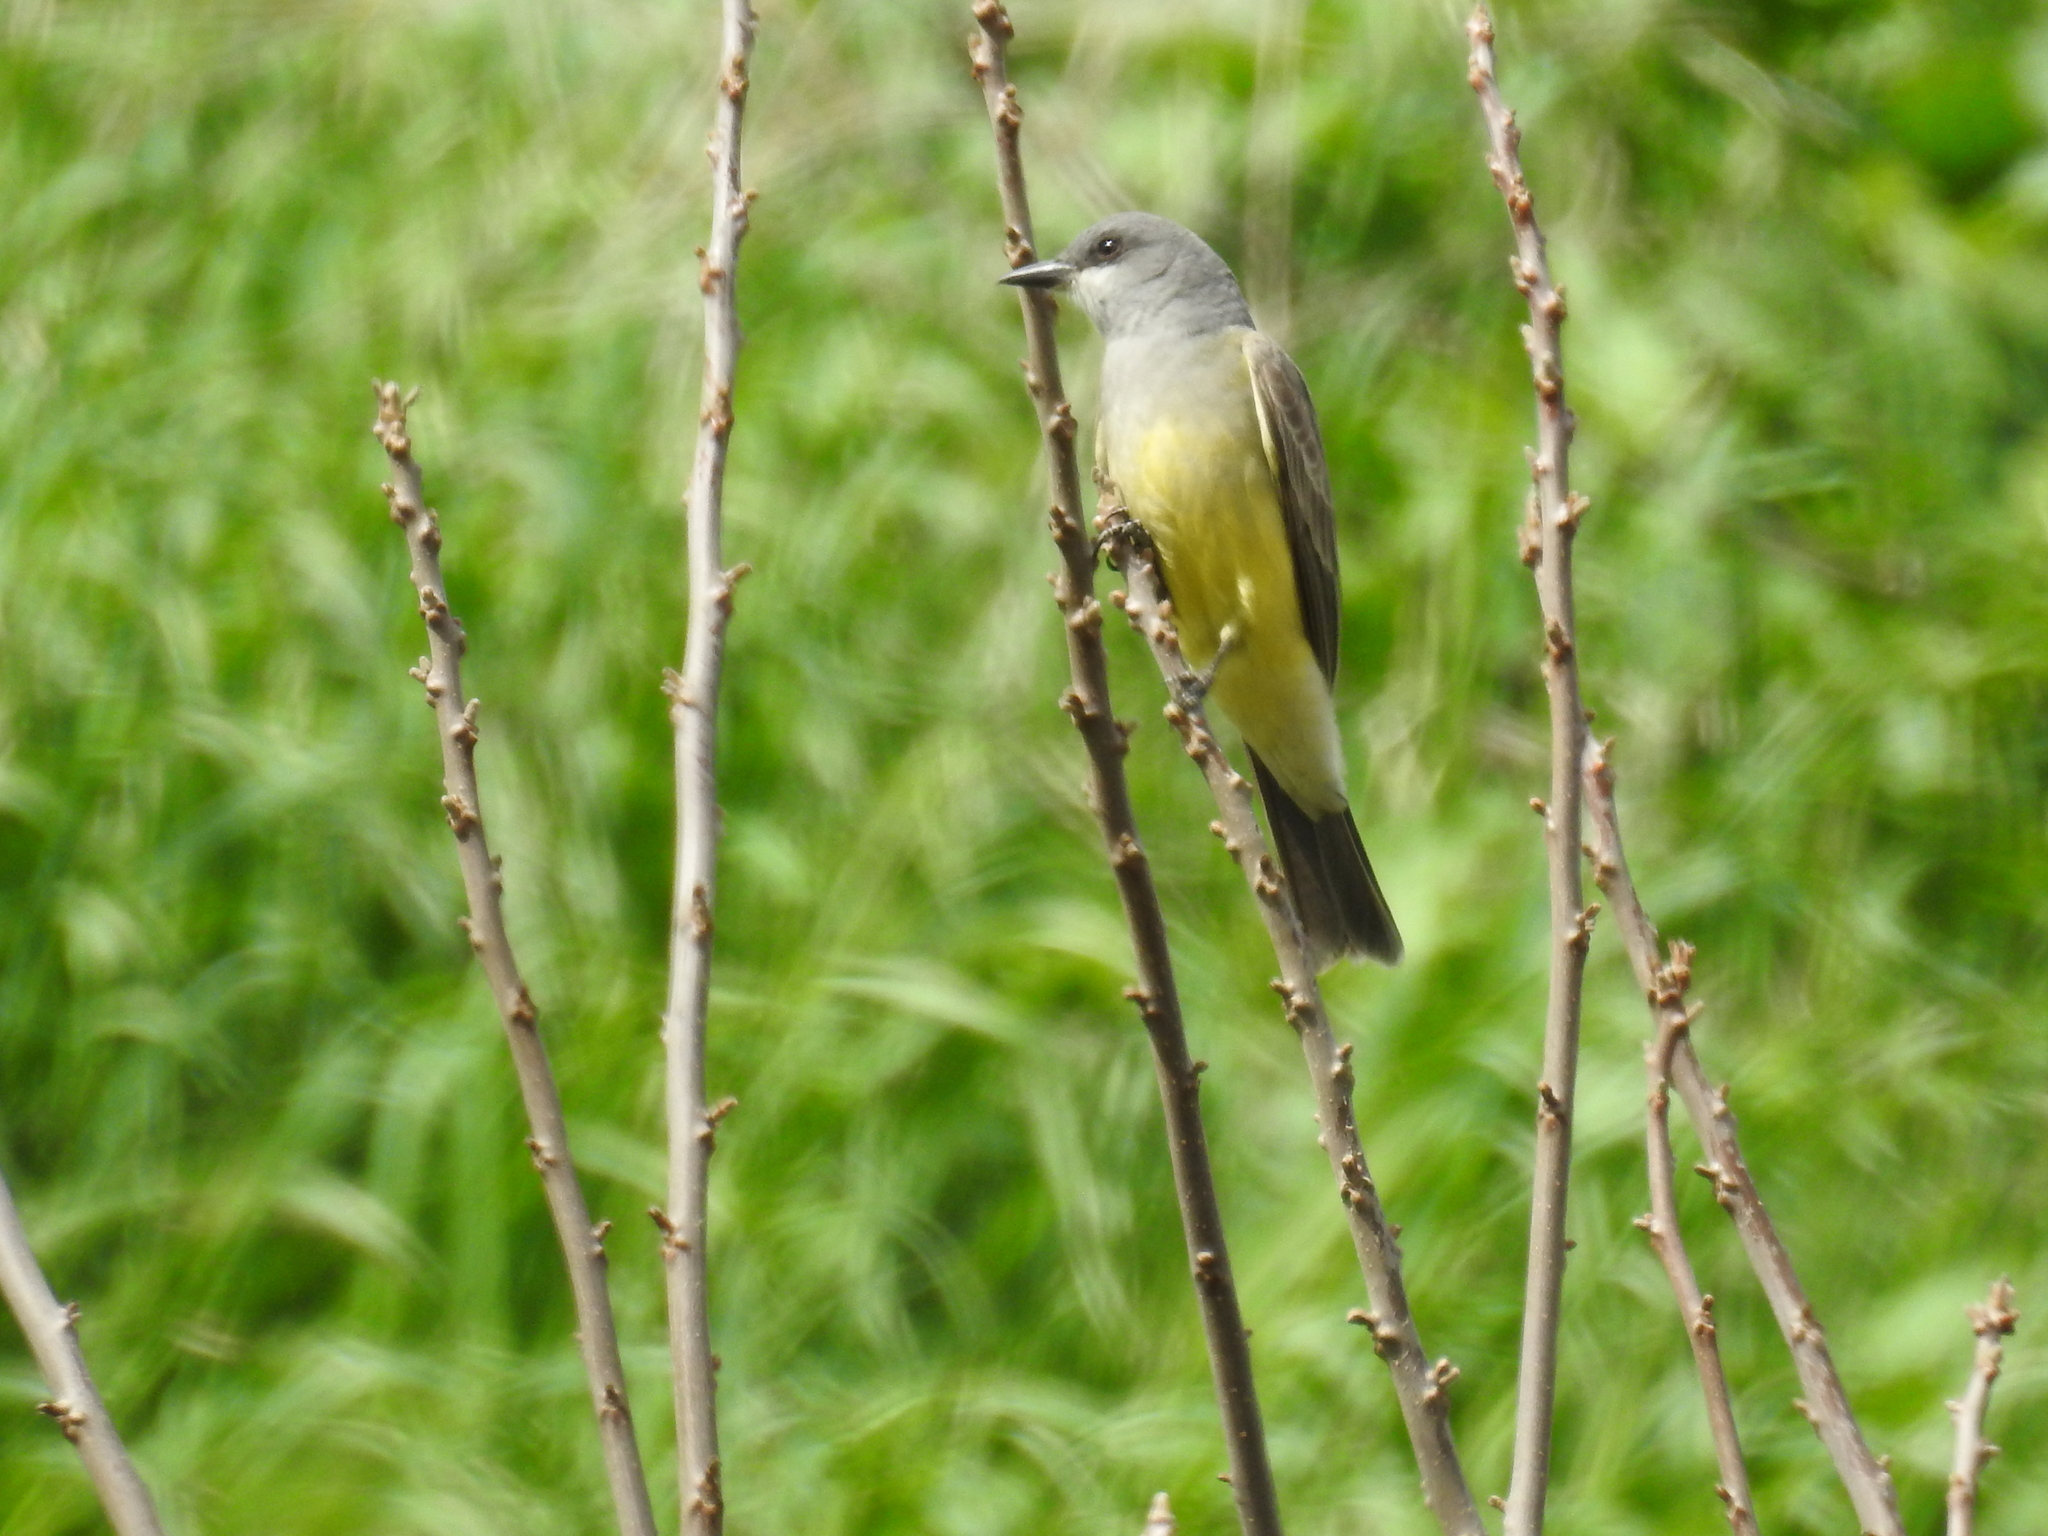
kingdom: Animalia
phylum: Chordata
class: Aves
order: Passeriformes
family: Tyrannidae
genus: Tyrannus
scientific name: Tyrannus vociferans
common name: Cassin's kingbird
